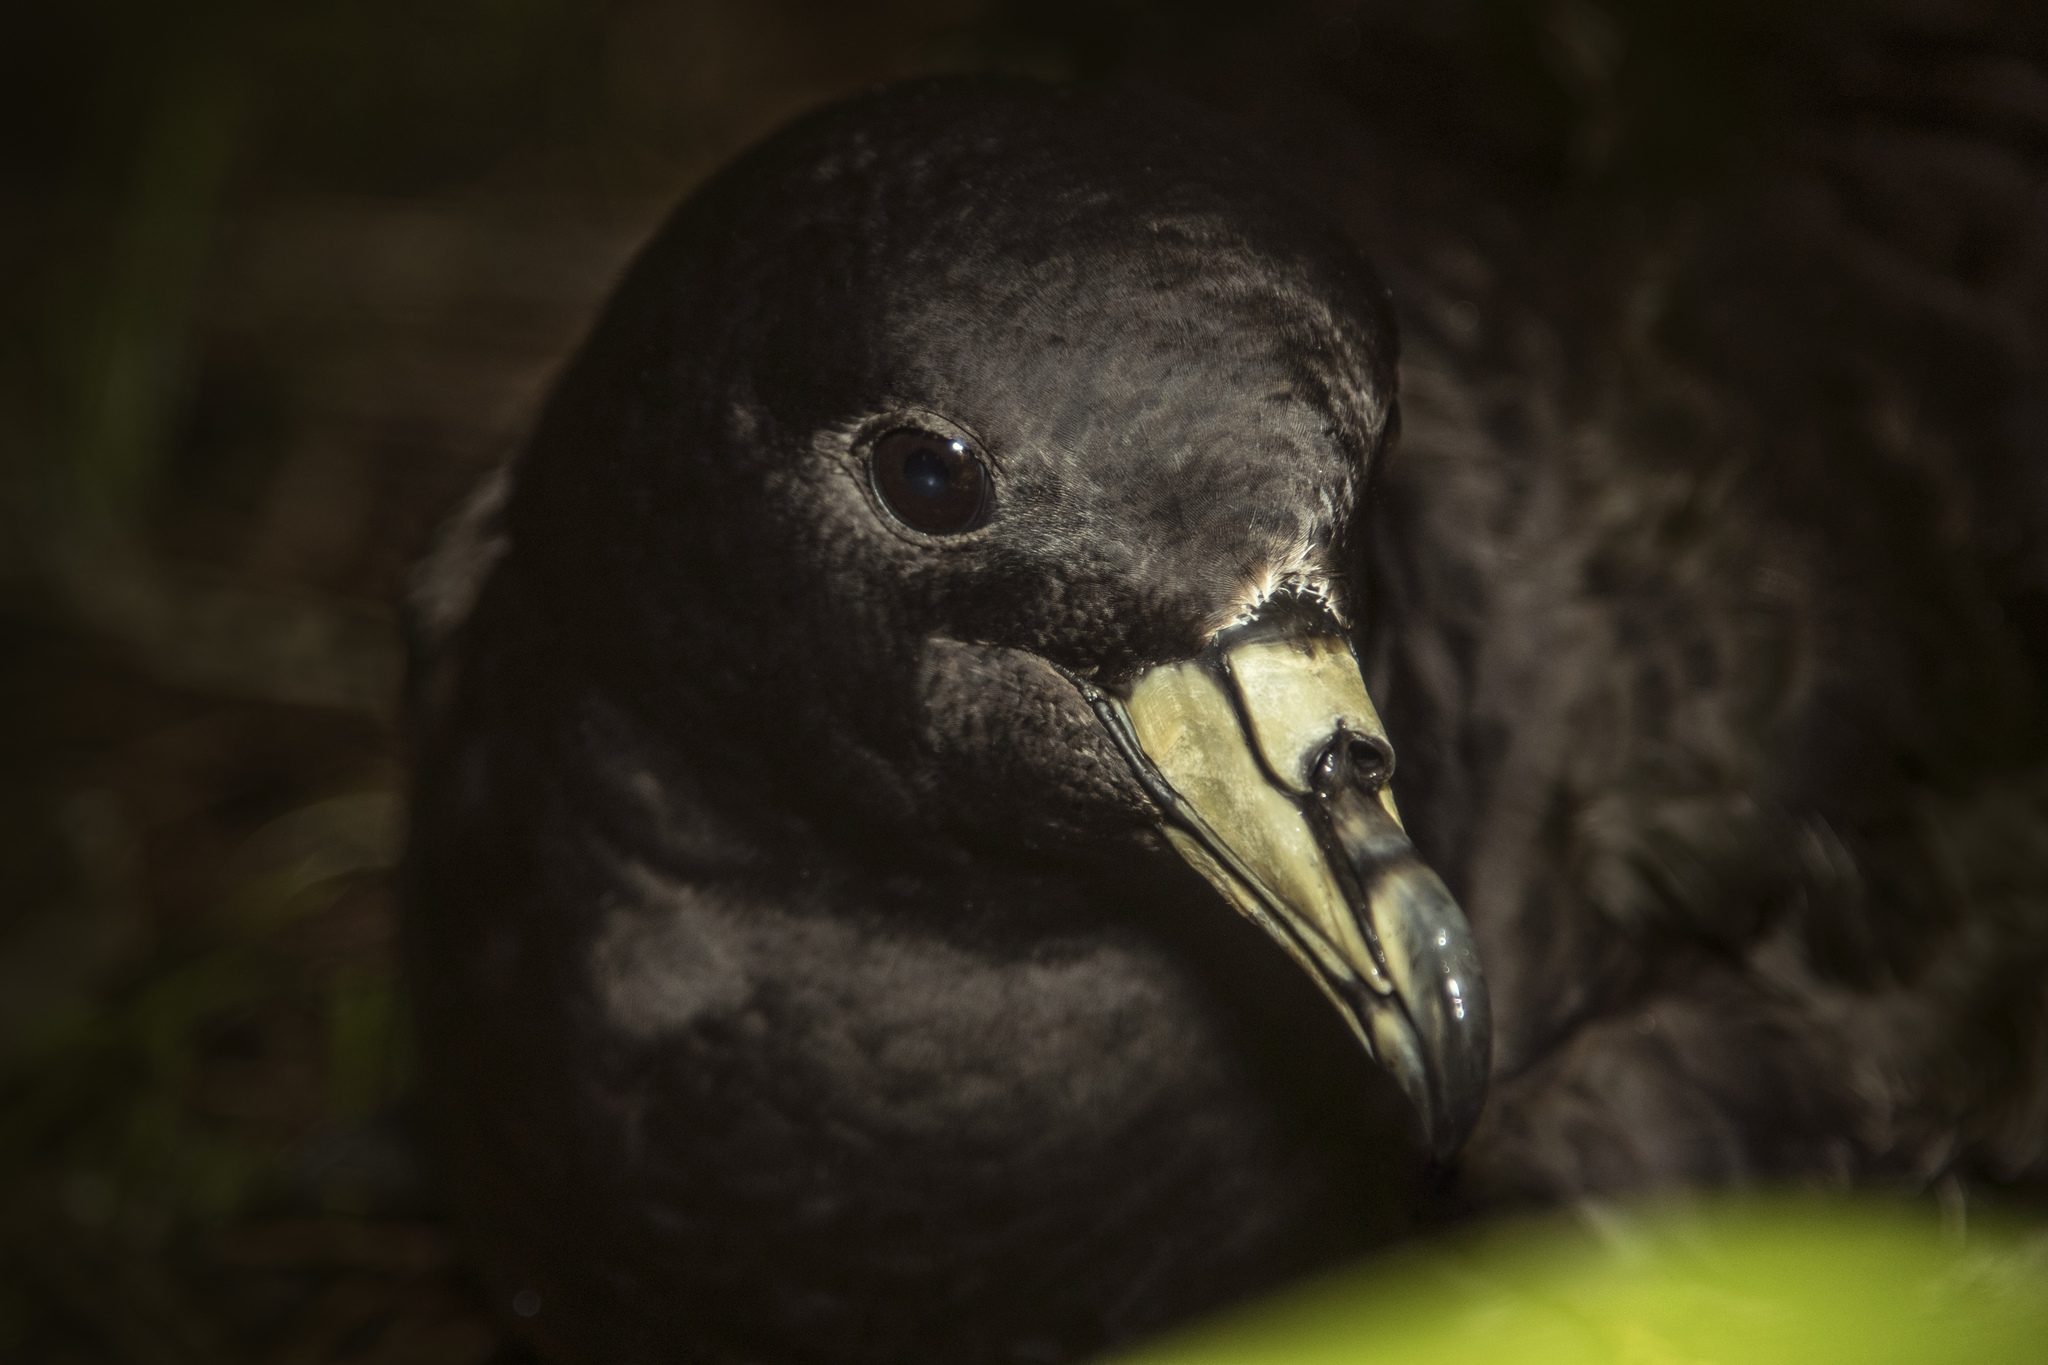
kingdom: Animalia
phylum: Chordata
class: Aves
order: Procellariiformes
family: Procellariidae
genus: Procellaria
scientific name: Procellaria parkinsoni
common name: Black petrel
